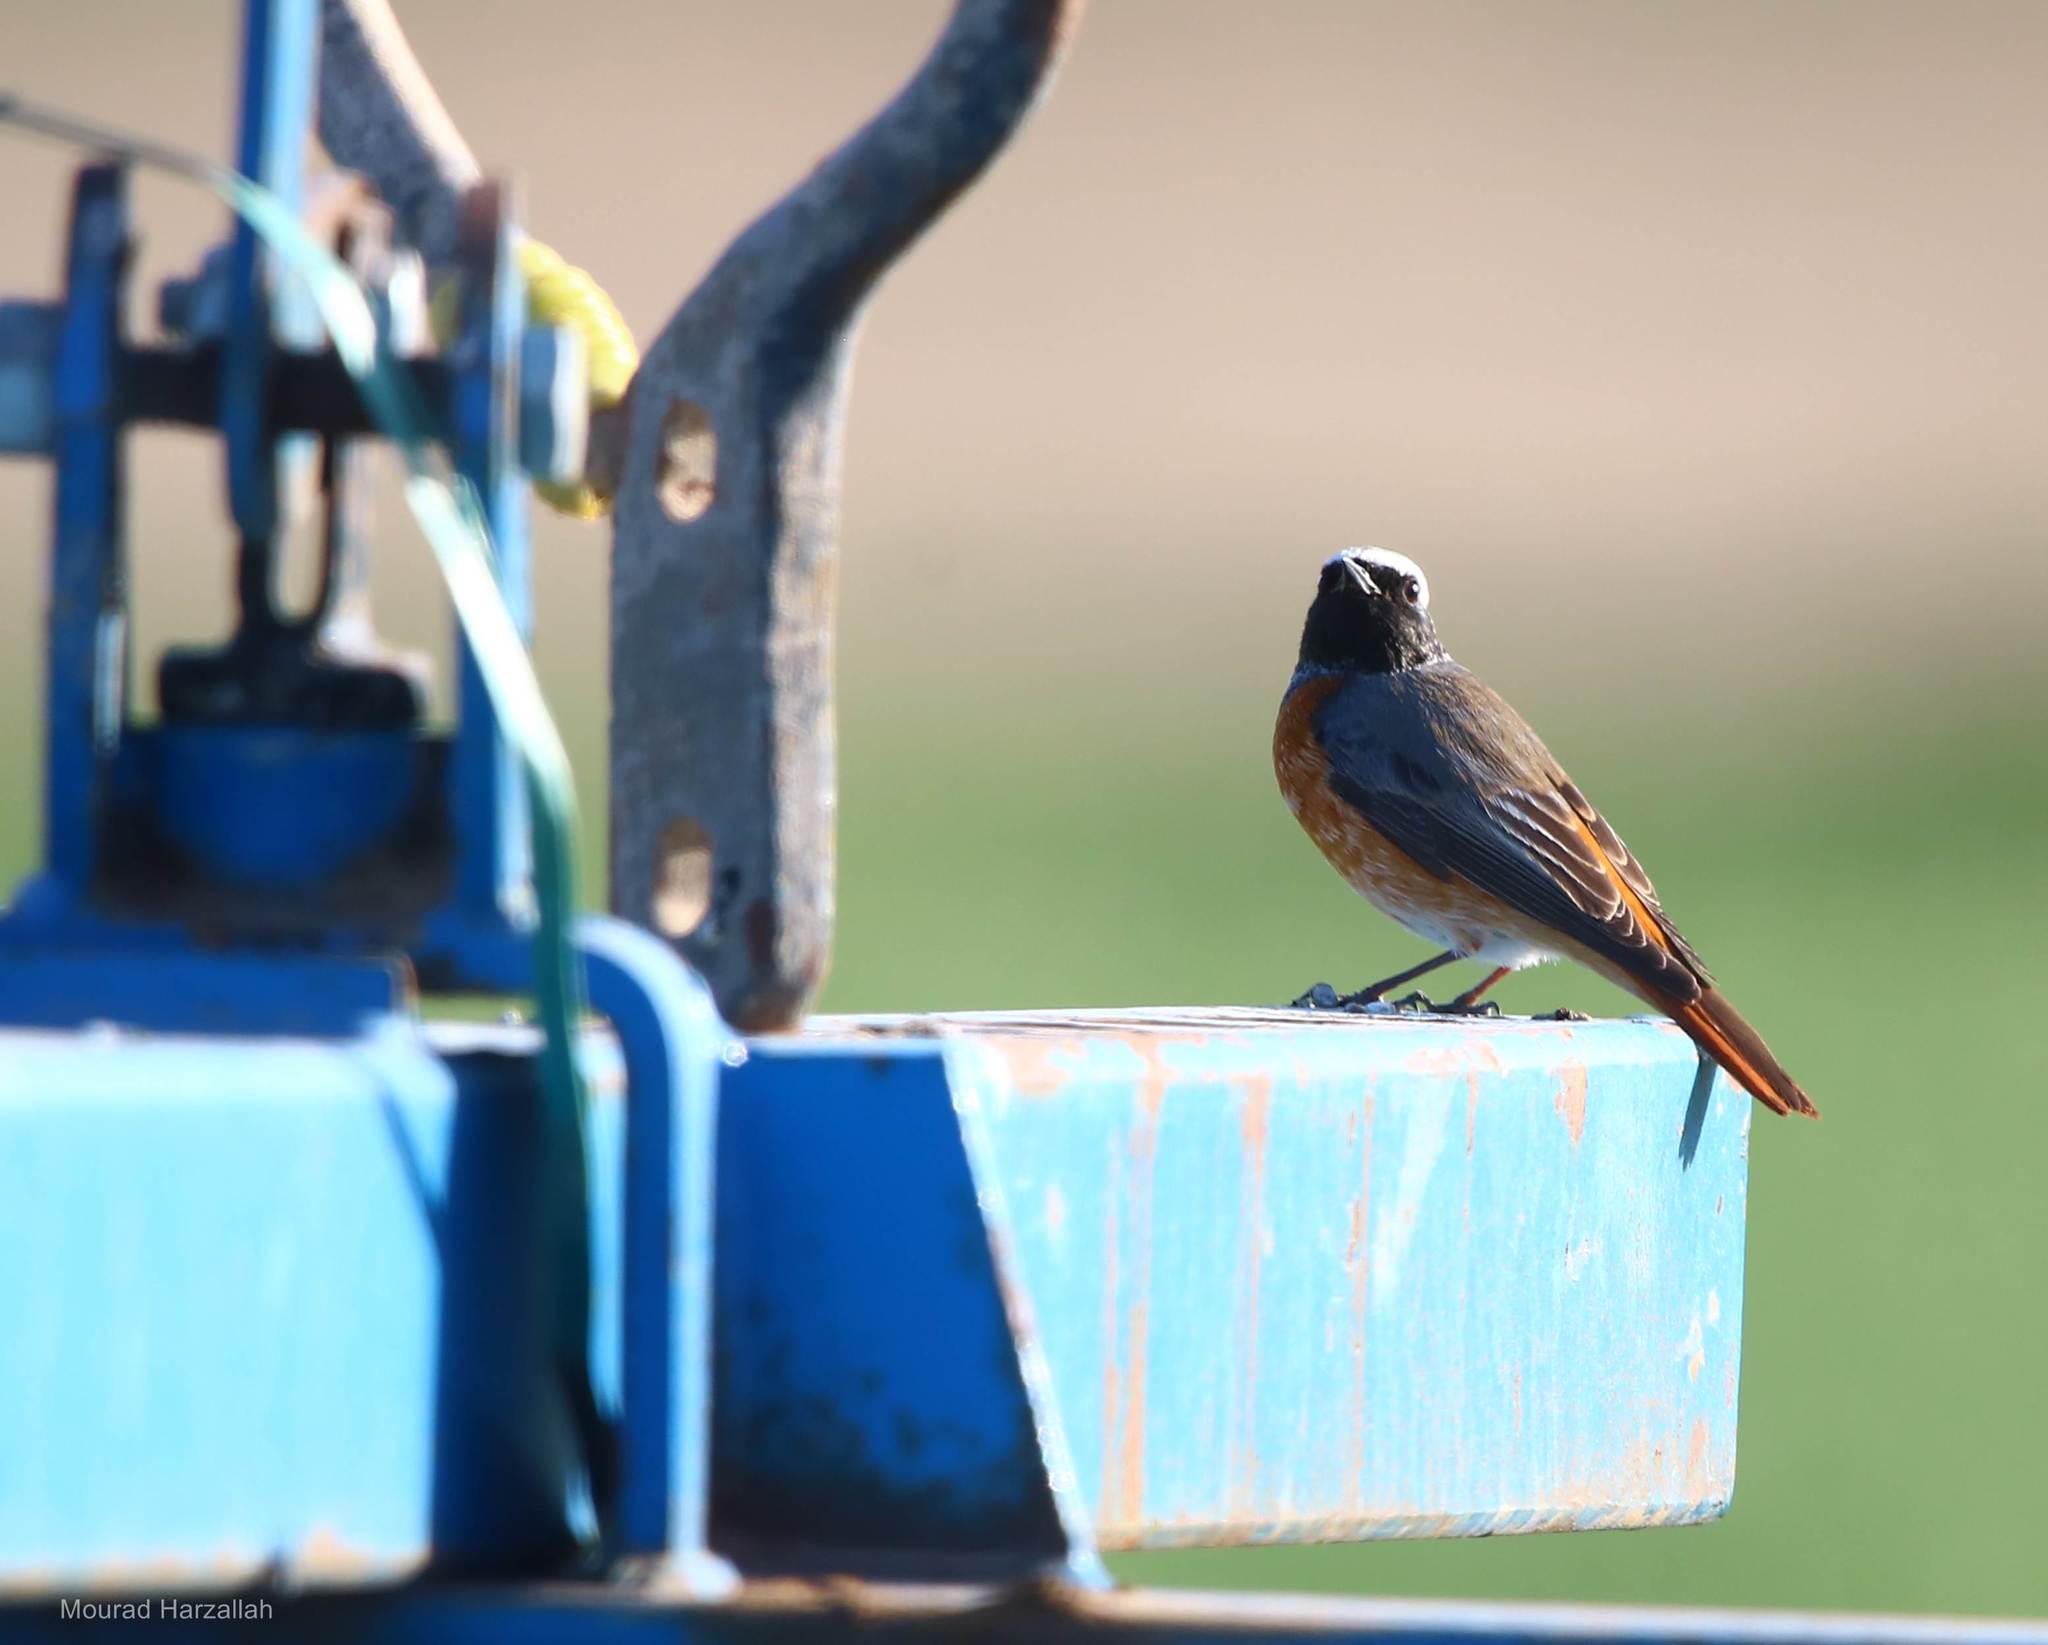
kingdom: Animalia
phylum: Chordata
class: Aves
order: Passeriformes
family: Muscicapidae
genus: Phoenicurus
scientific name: Phoenicurus phoenicurus
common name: Common redstart
